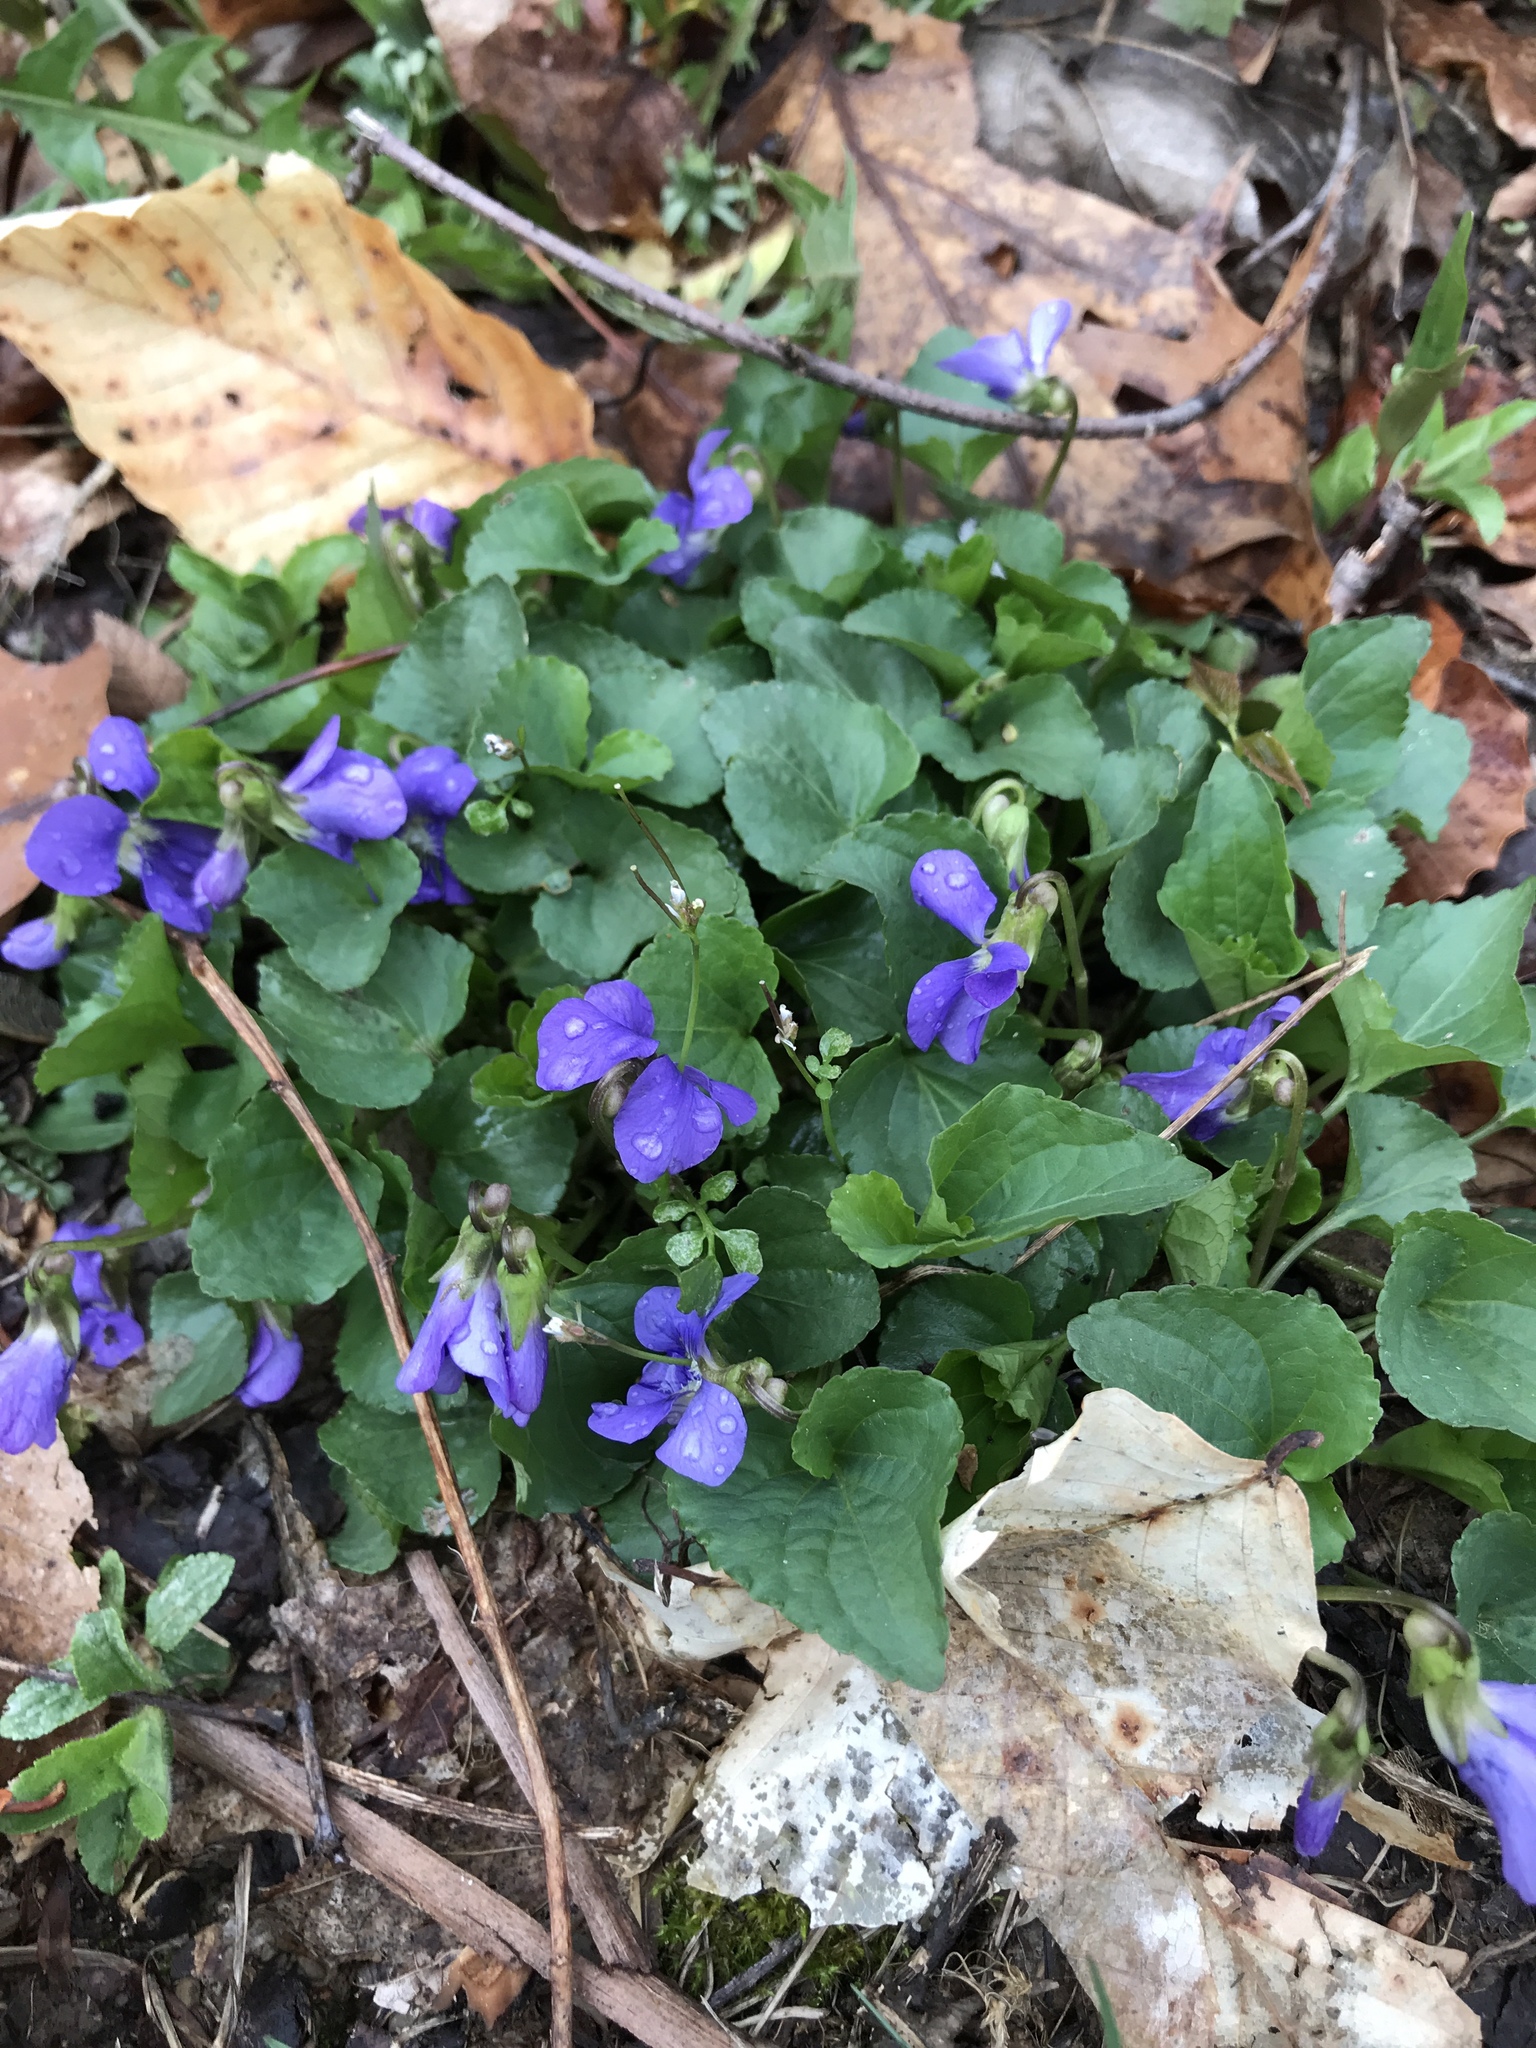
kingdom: Plantae
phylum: Tracheophyta
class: Magnoliopsida
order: Malpighiales
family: Violaceae
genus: Viola
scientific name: Viola sororia
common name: Dooryard violet
